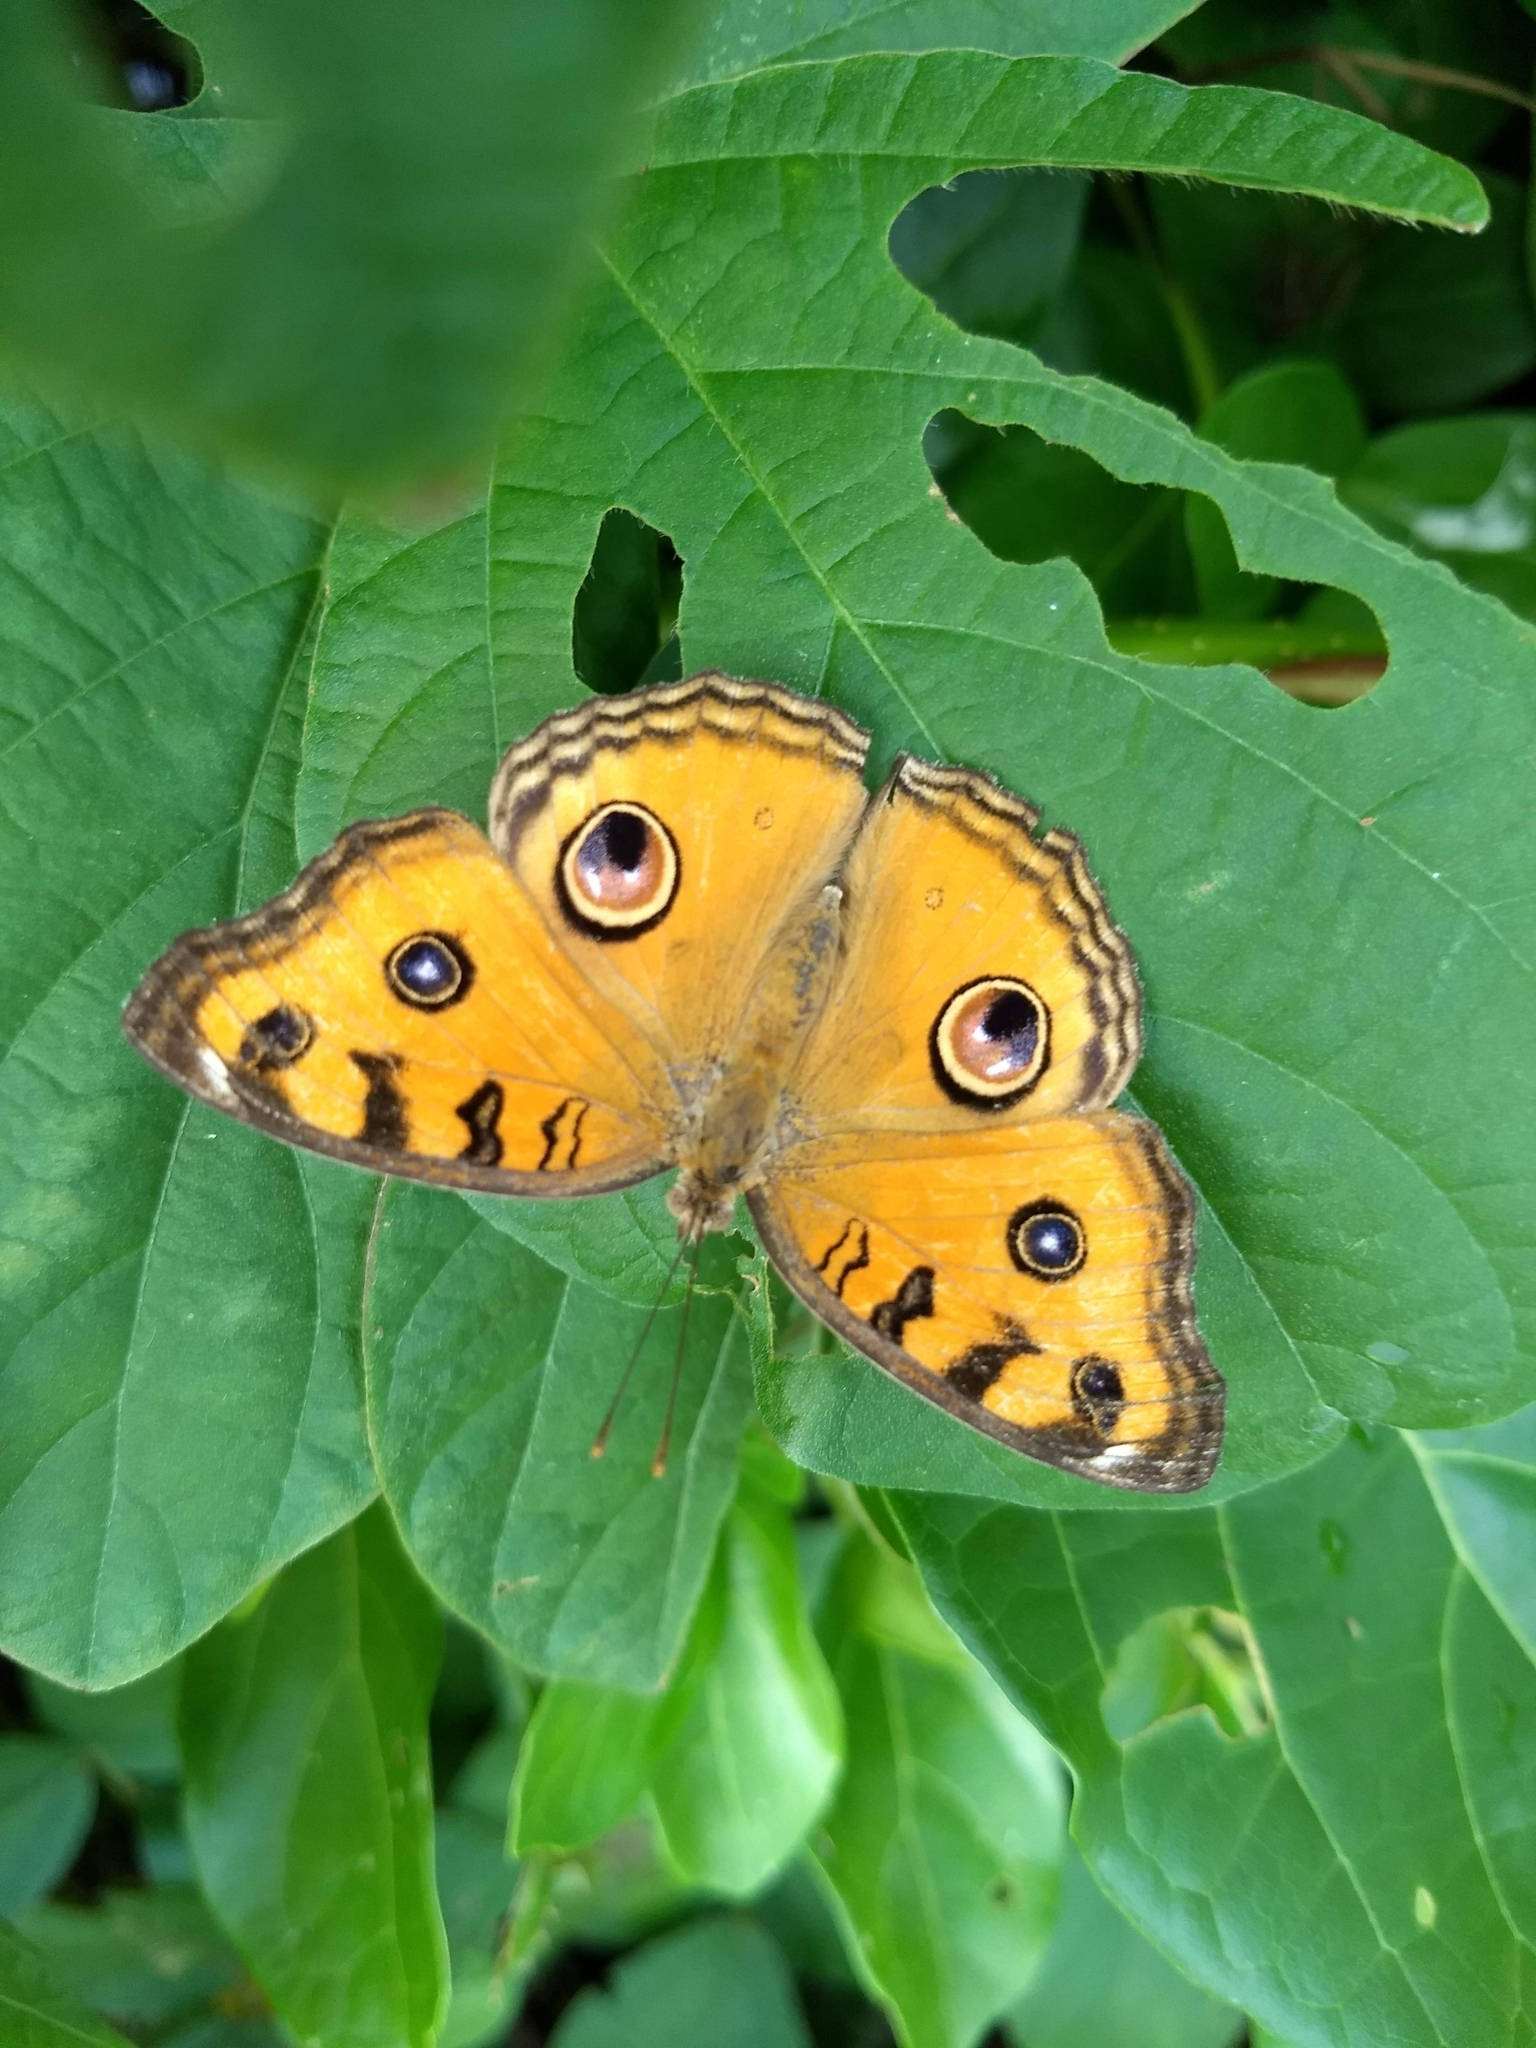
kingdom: Animalia
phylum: Arthropoda
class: Insecta
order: Lepidoptera
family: Nymphalidae
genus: Junonia
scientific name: Junonia almana
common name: Peacock pansy
